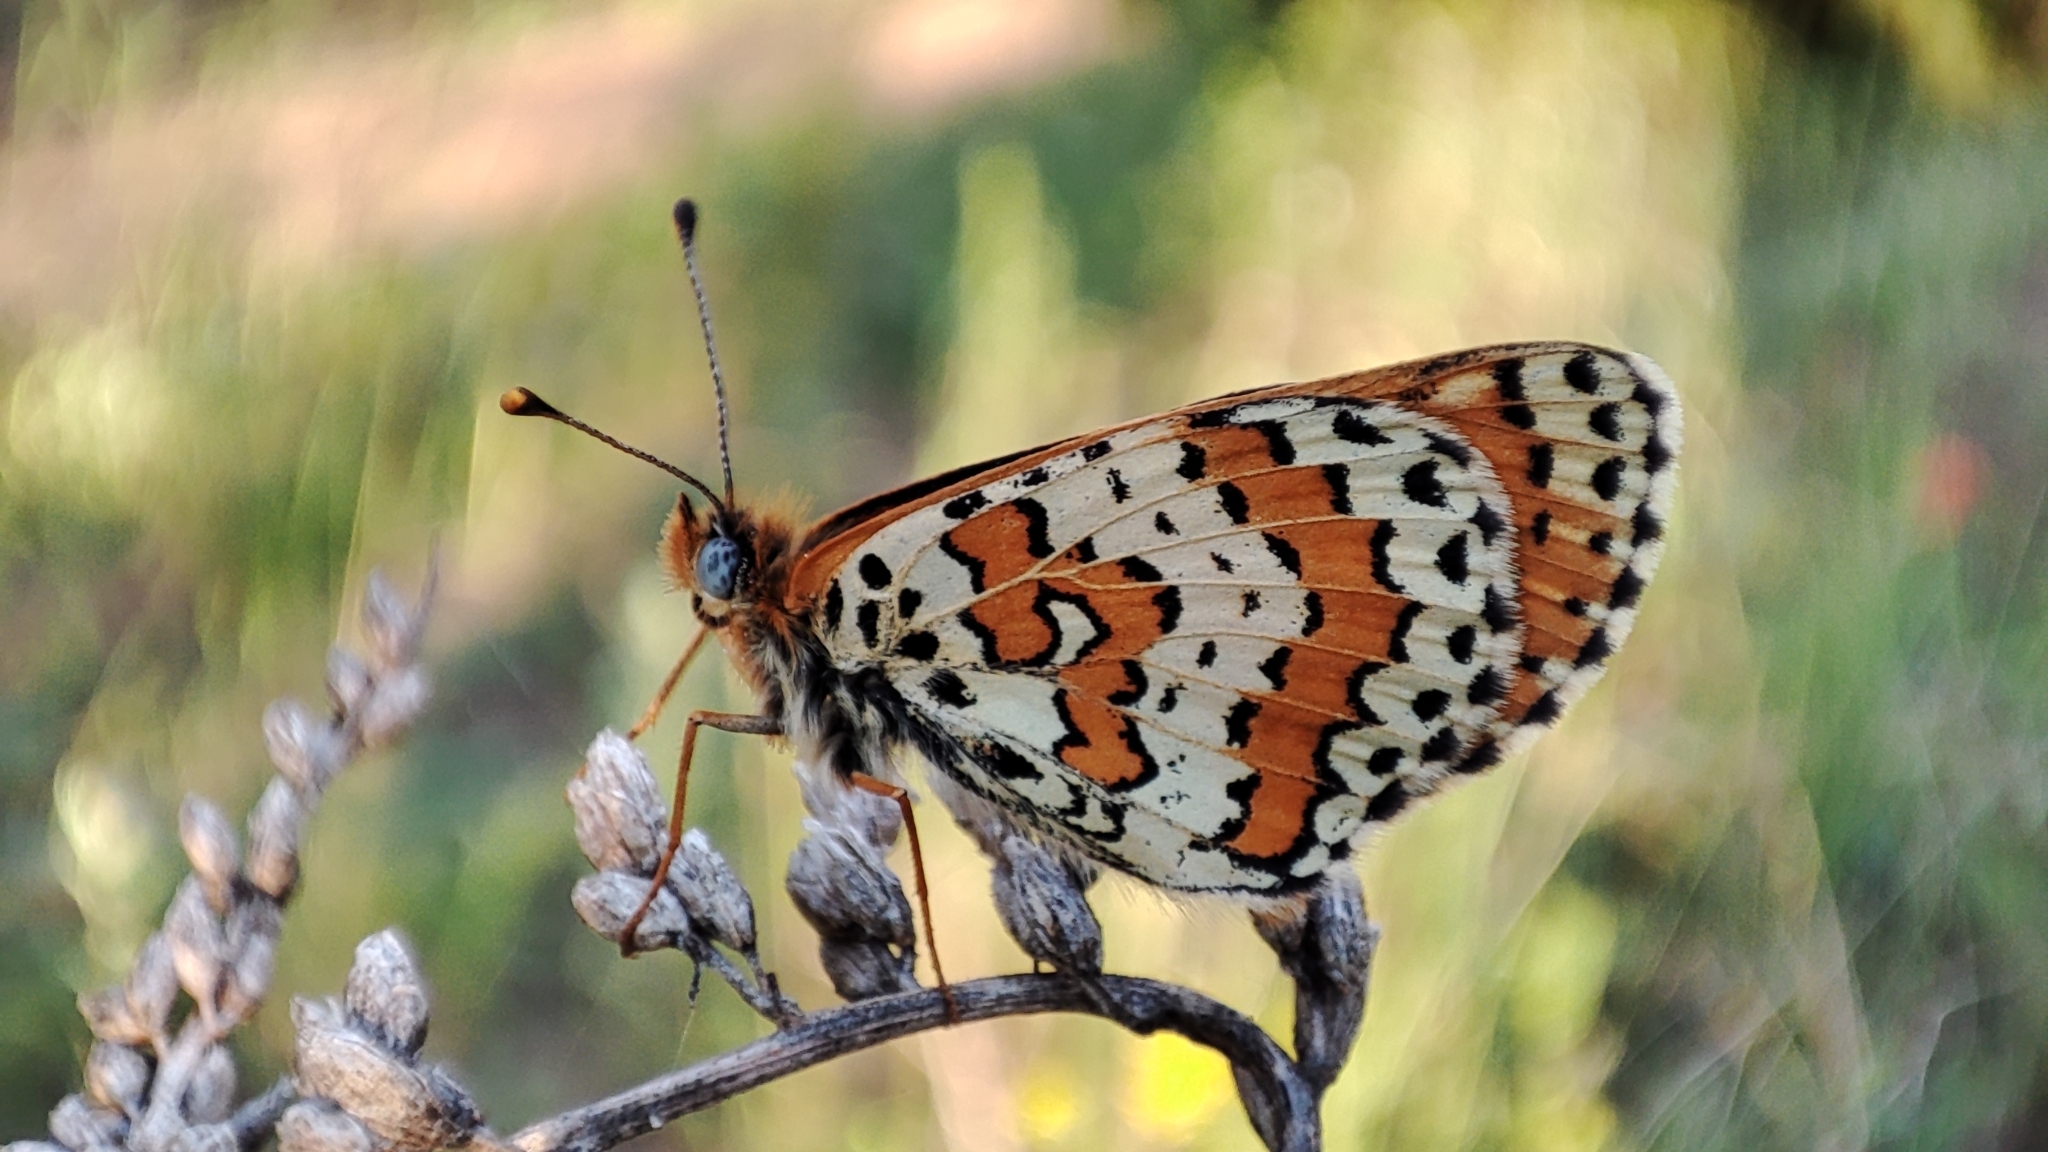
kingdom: Animalia
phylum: Arthropoda
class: Insecta
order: Lepidoptera
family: Nymphalidae
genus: Melitaea
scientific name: Melitaea didymoides
